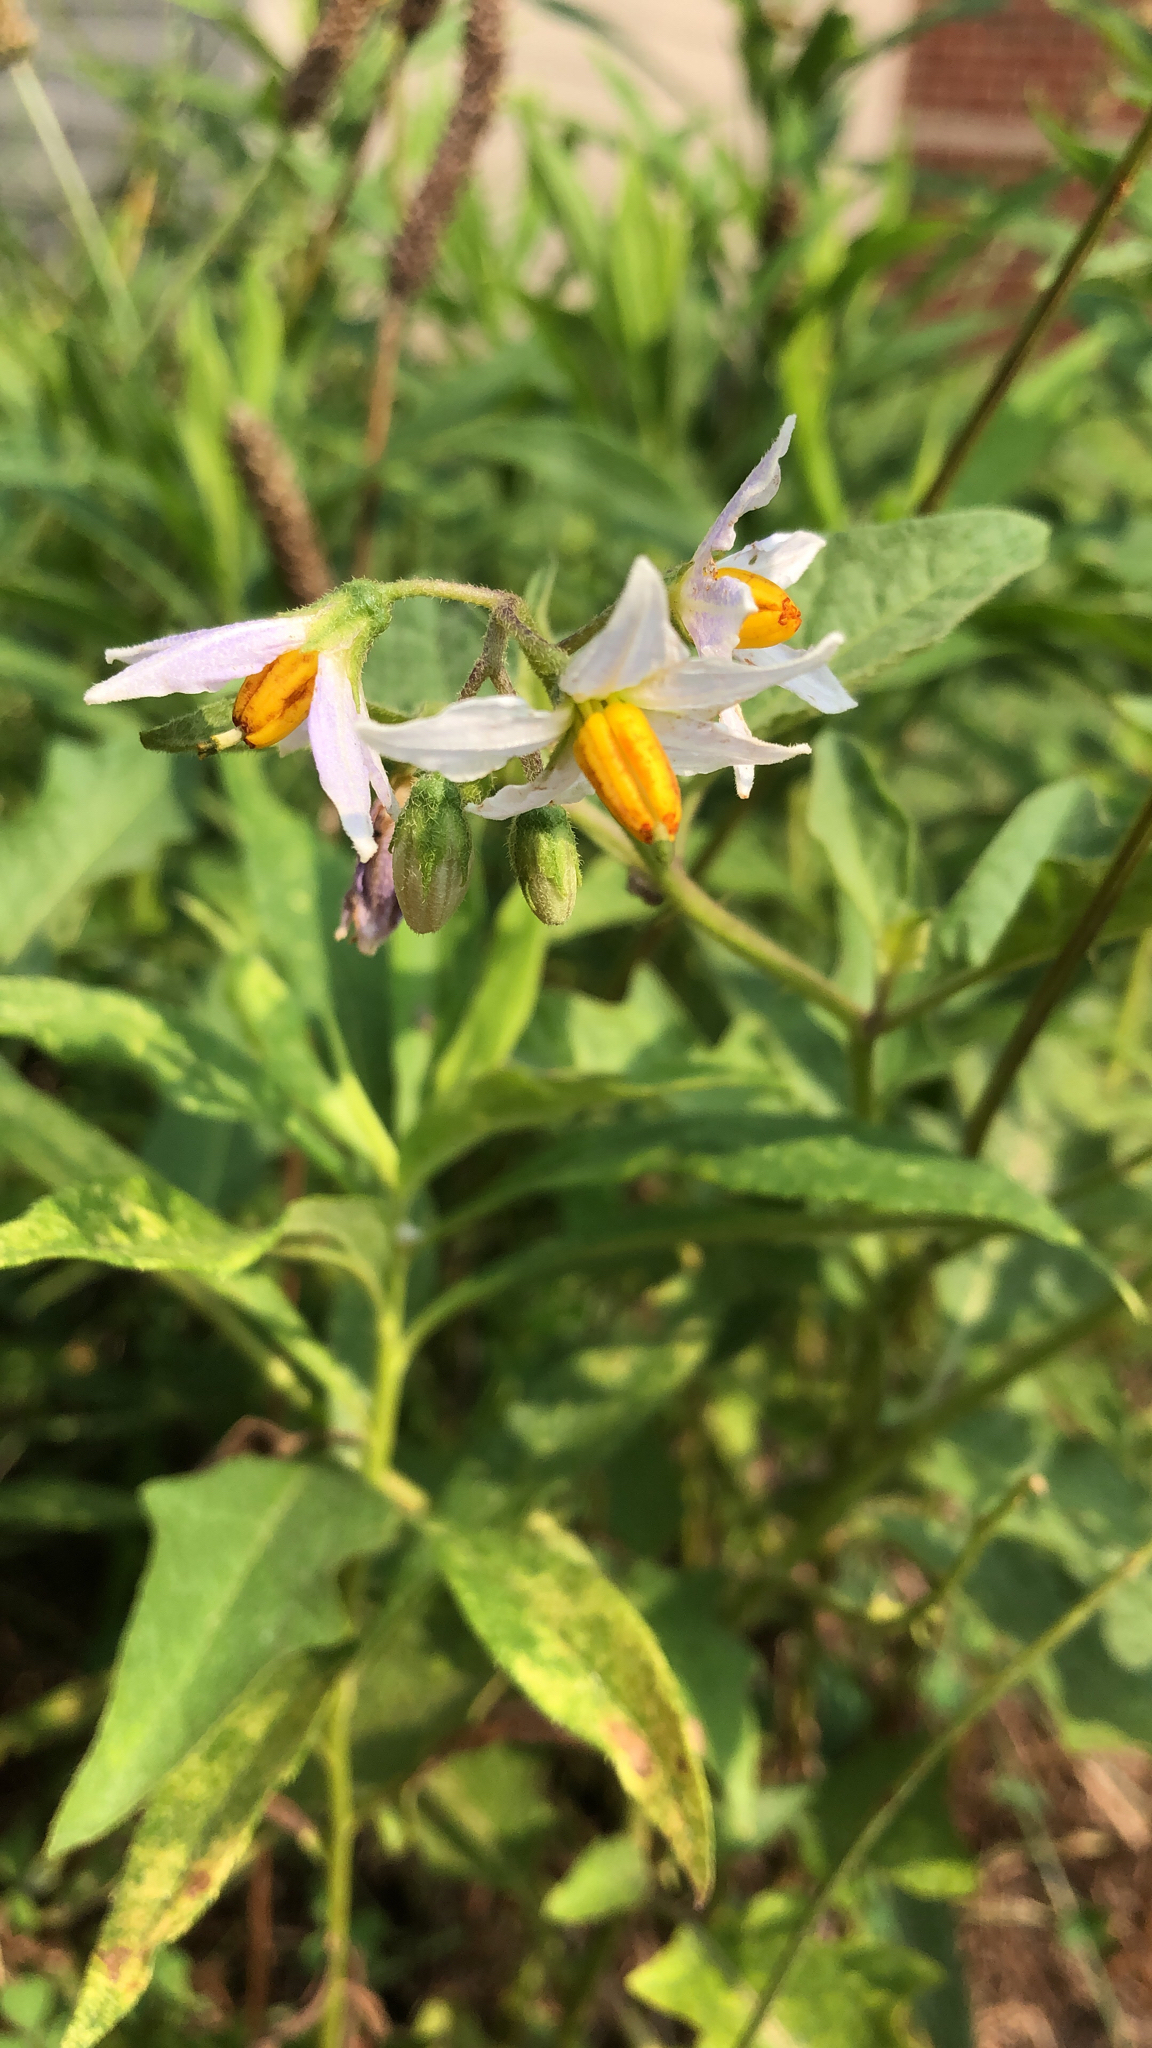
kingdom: Plantae
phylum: Tracheophyta
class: Magnoliopsida
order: Solanales
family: Solanaceae
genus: Solanum
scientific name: Solanum carolinense
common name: Horse-nettle
